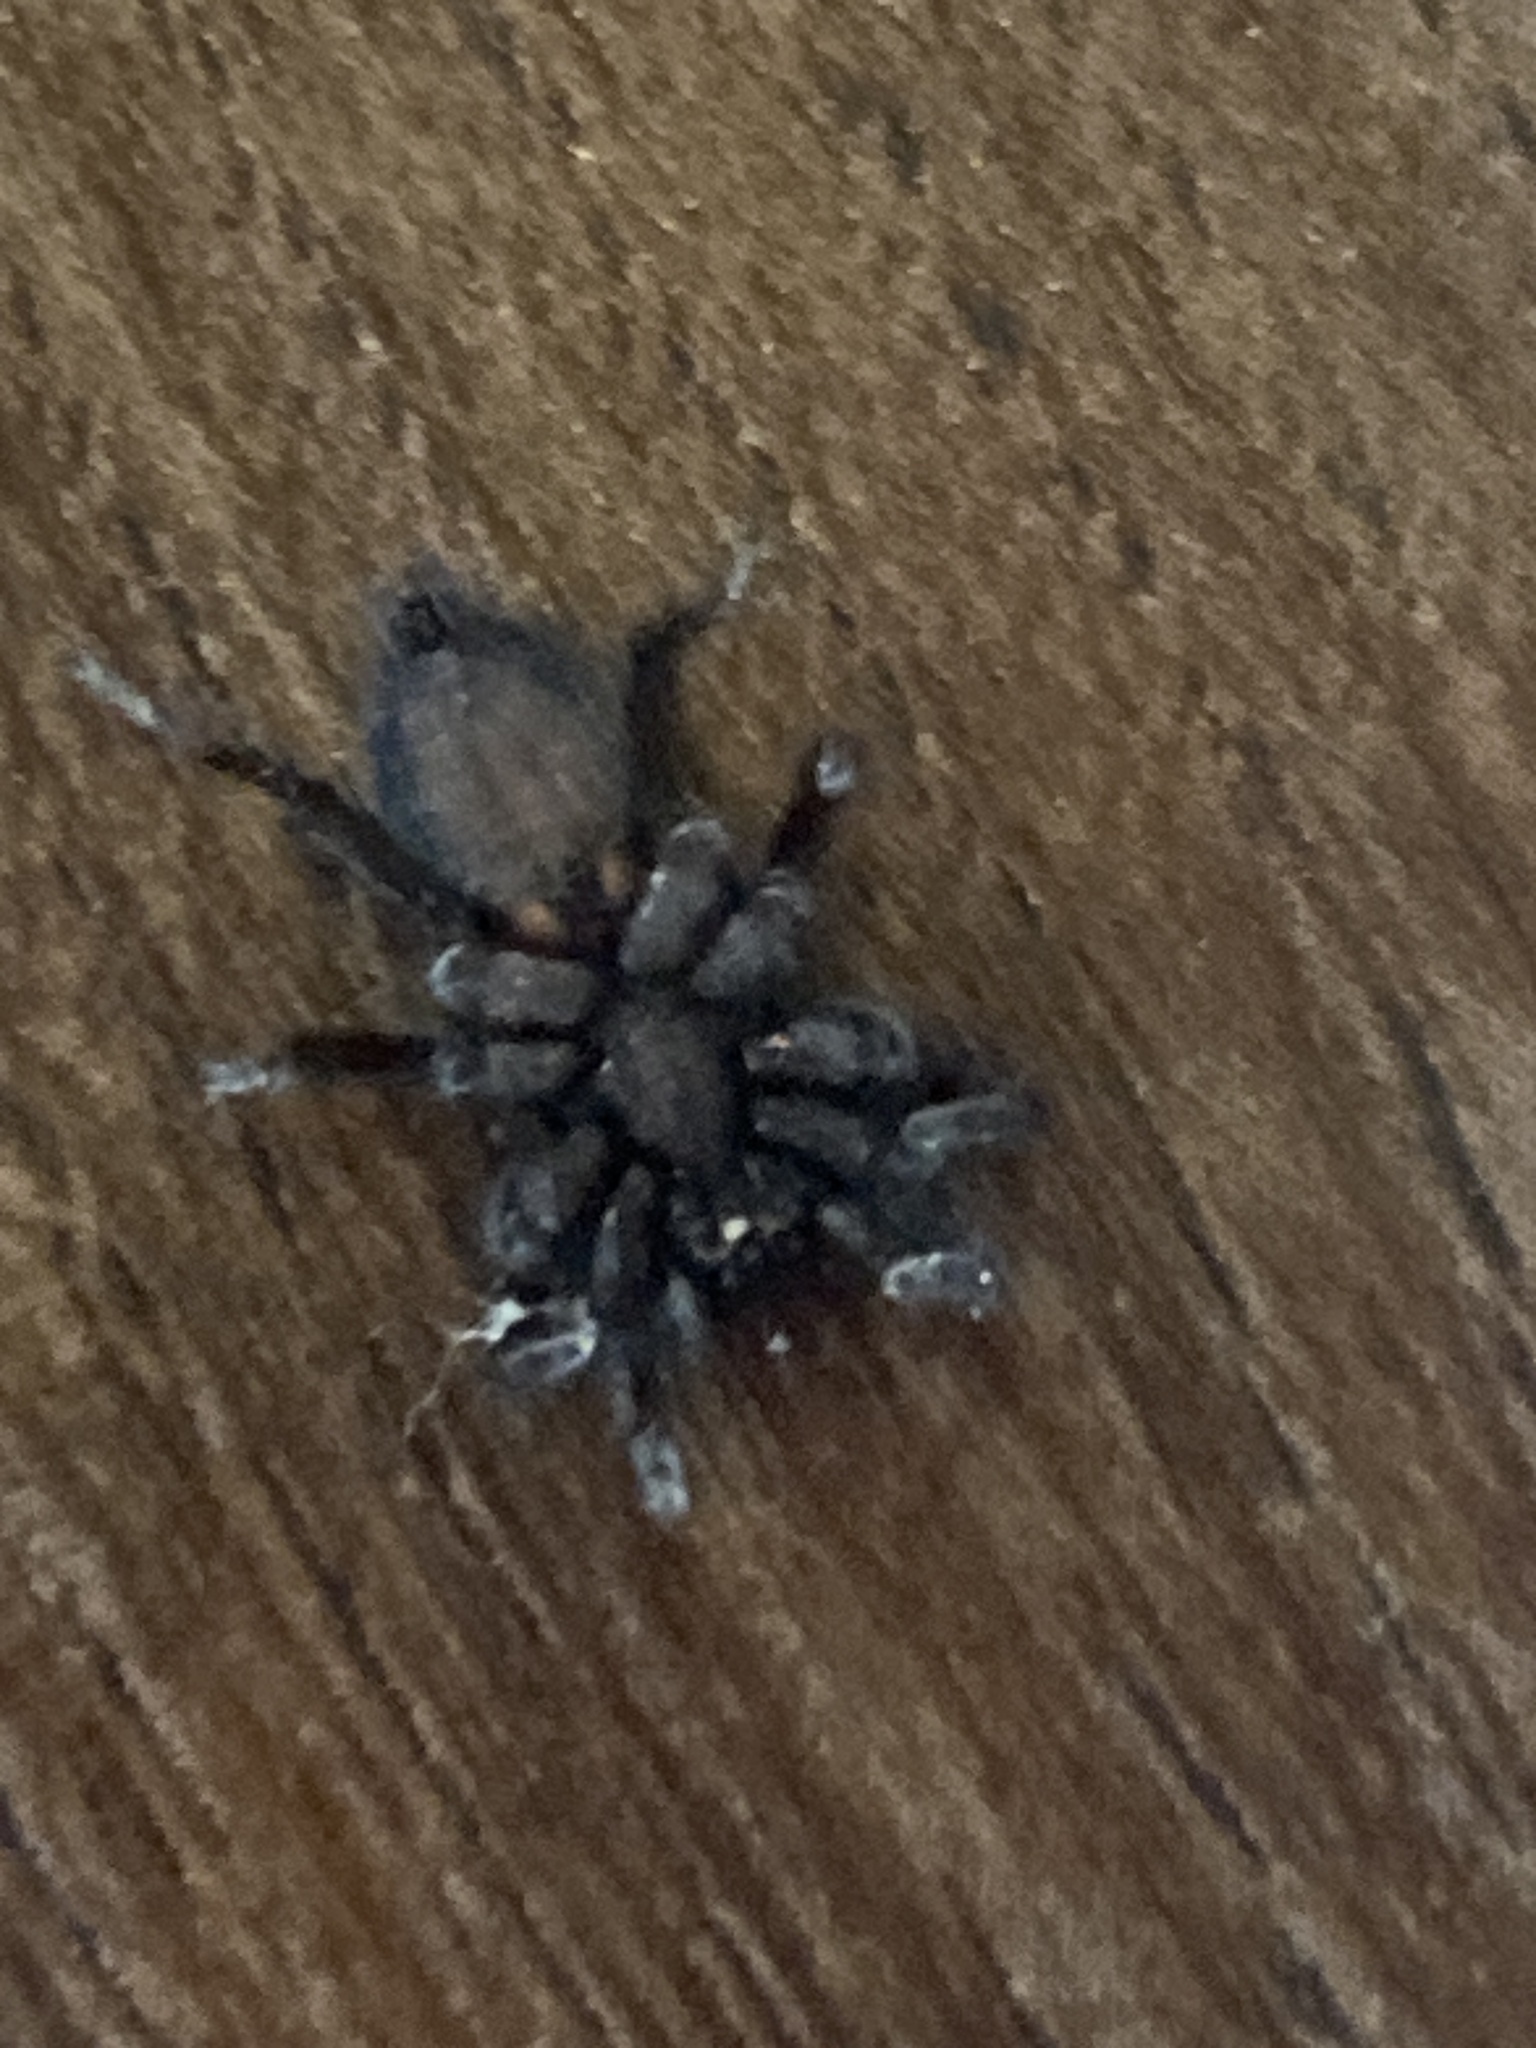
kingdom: Animalia
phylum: Arthropoda
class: Arachnida
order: Araneae
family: Gnaphosidae
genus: Herpyllus
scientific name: Herpyllus ecclesiasticus
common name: Eastern parson spider
